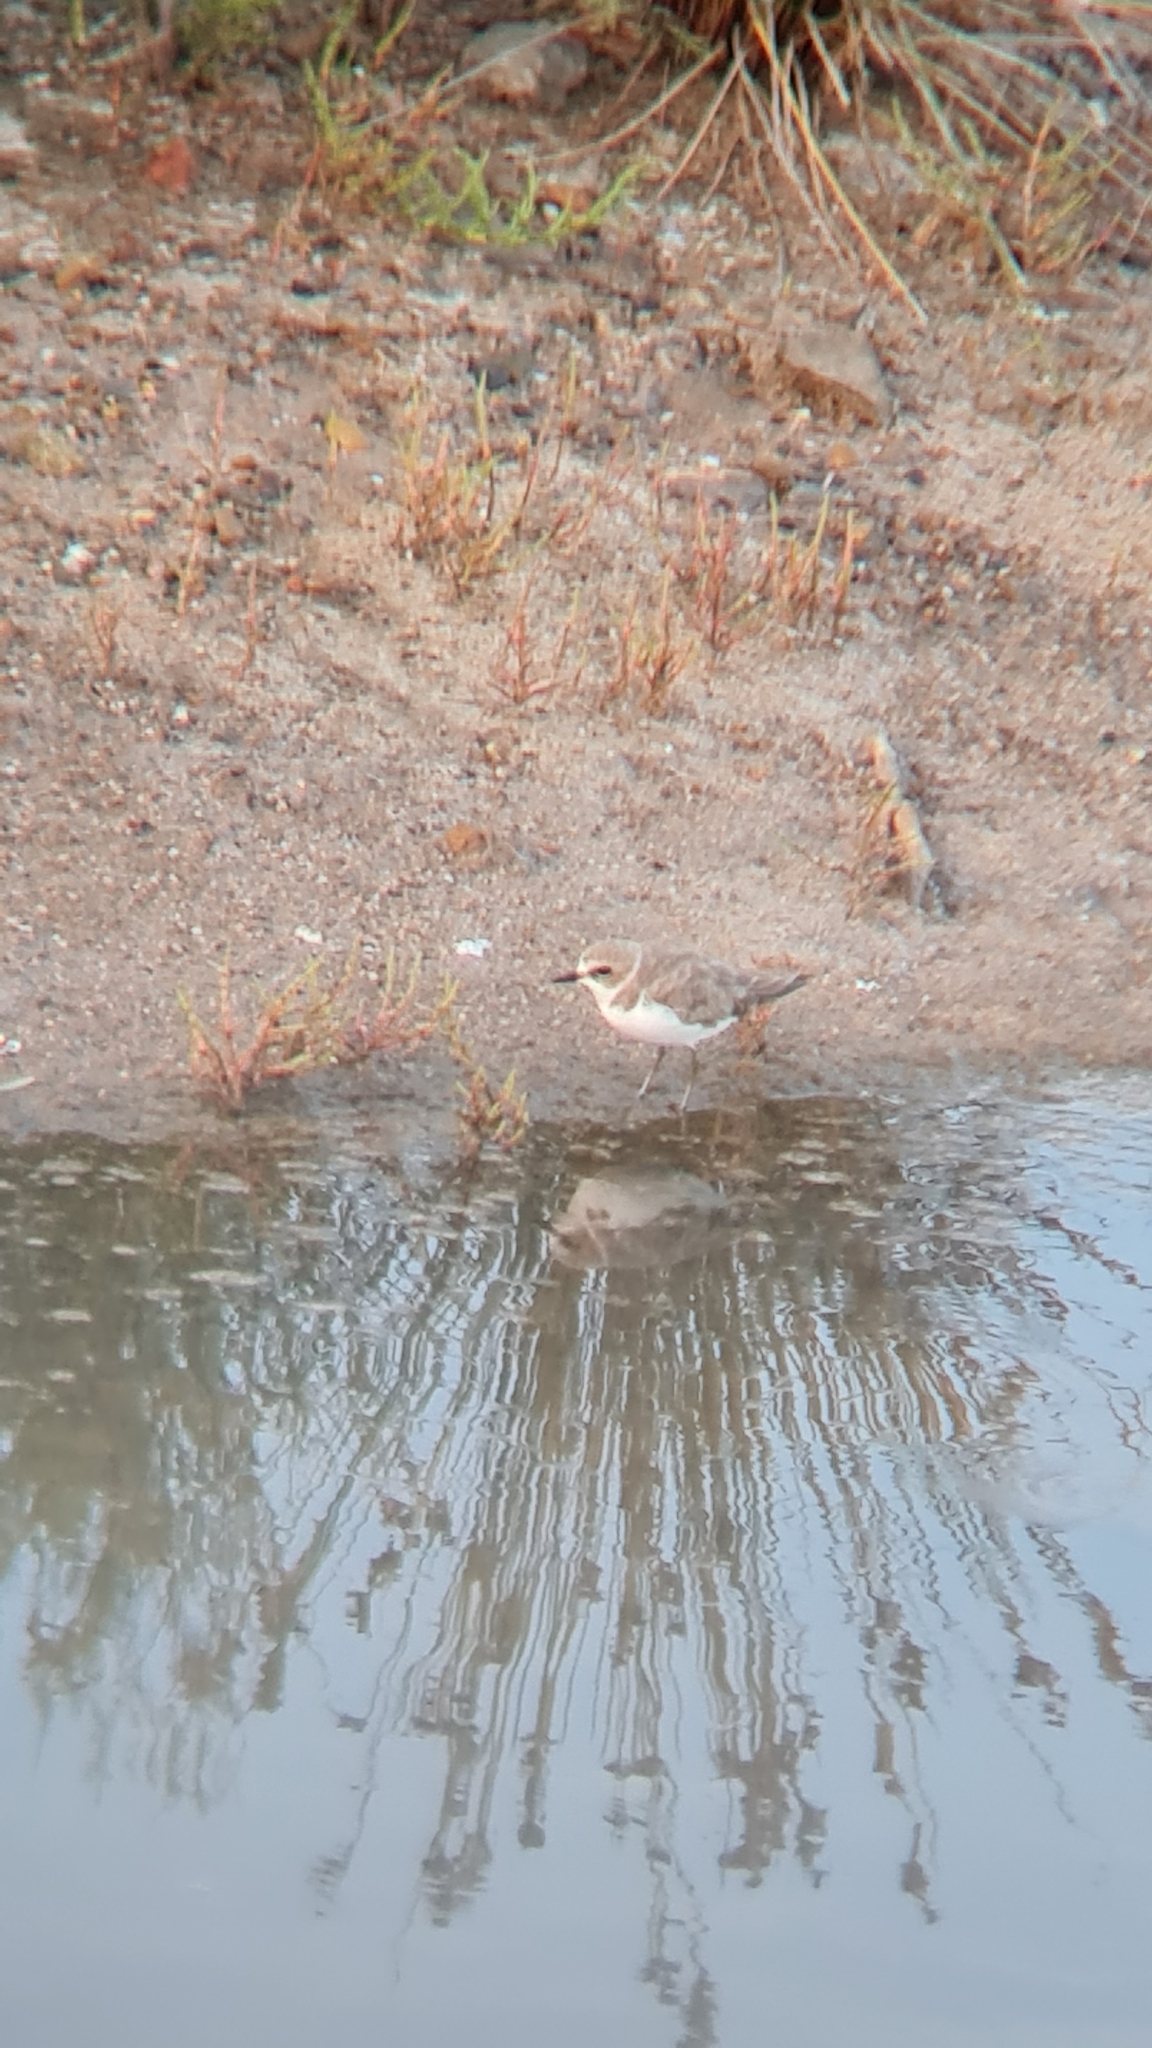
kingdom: Animalia
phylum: Chordata
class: Aves
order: Charadriiformes
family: Charadriidae
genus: Charadrius
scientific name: Charadrius alexandrinus
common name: Kentish plover
